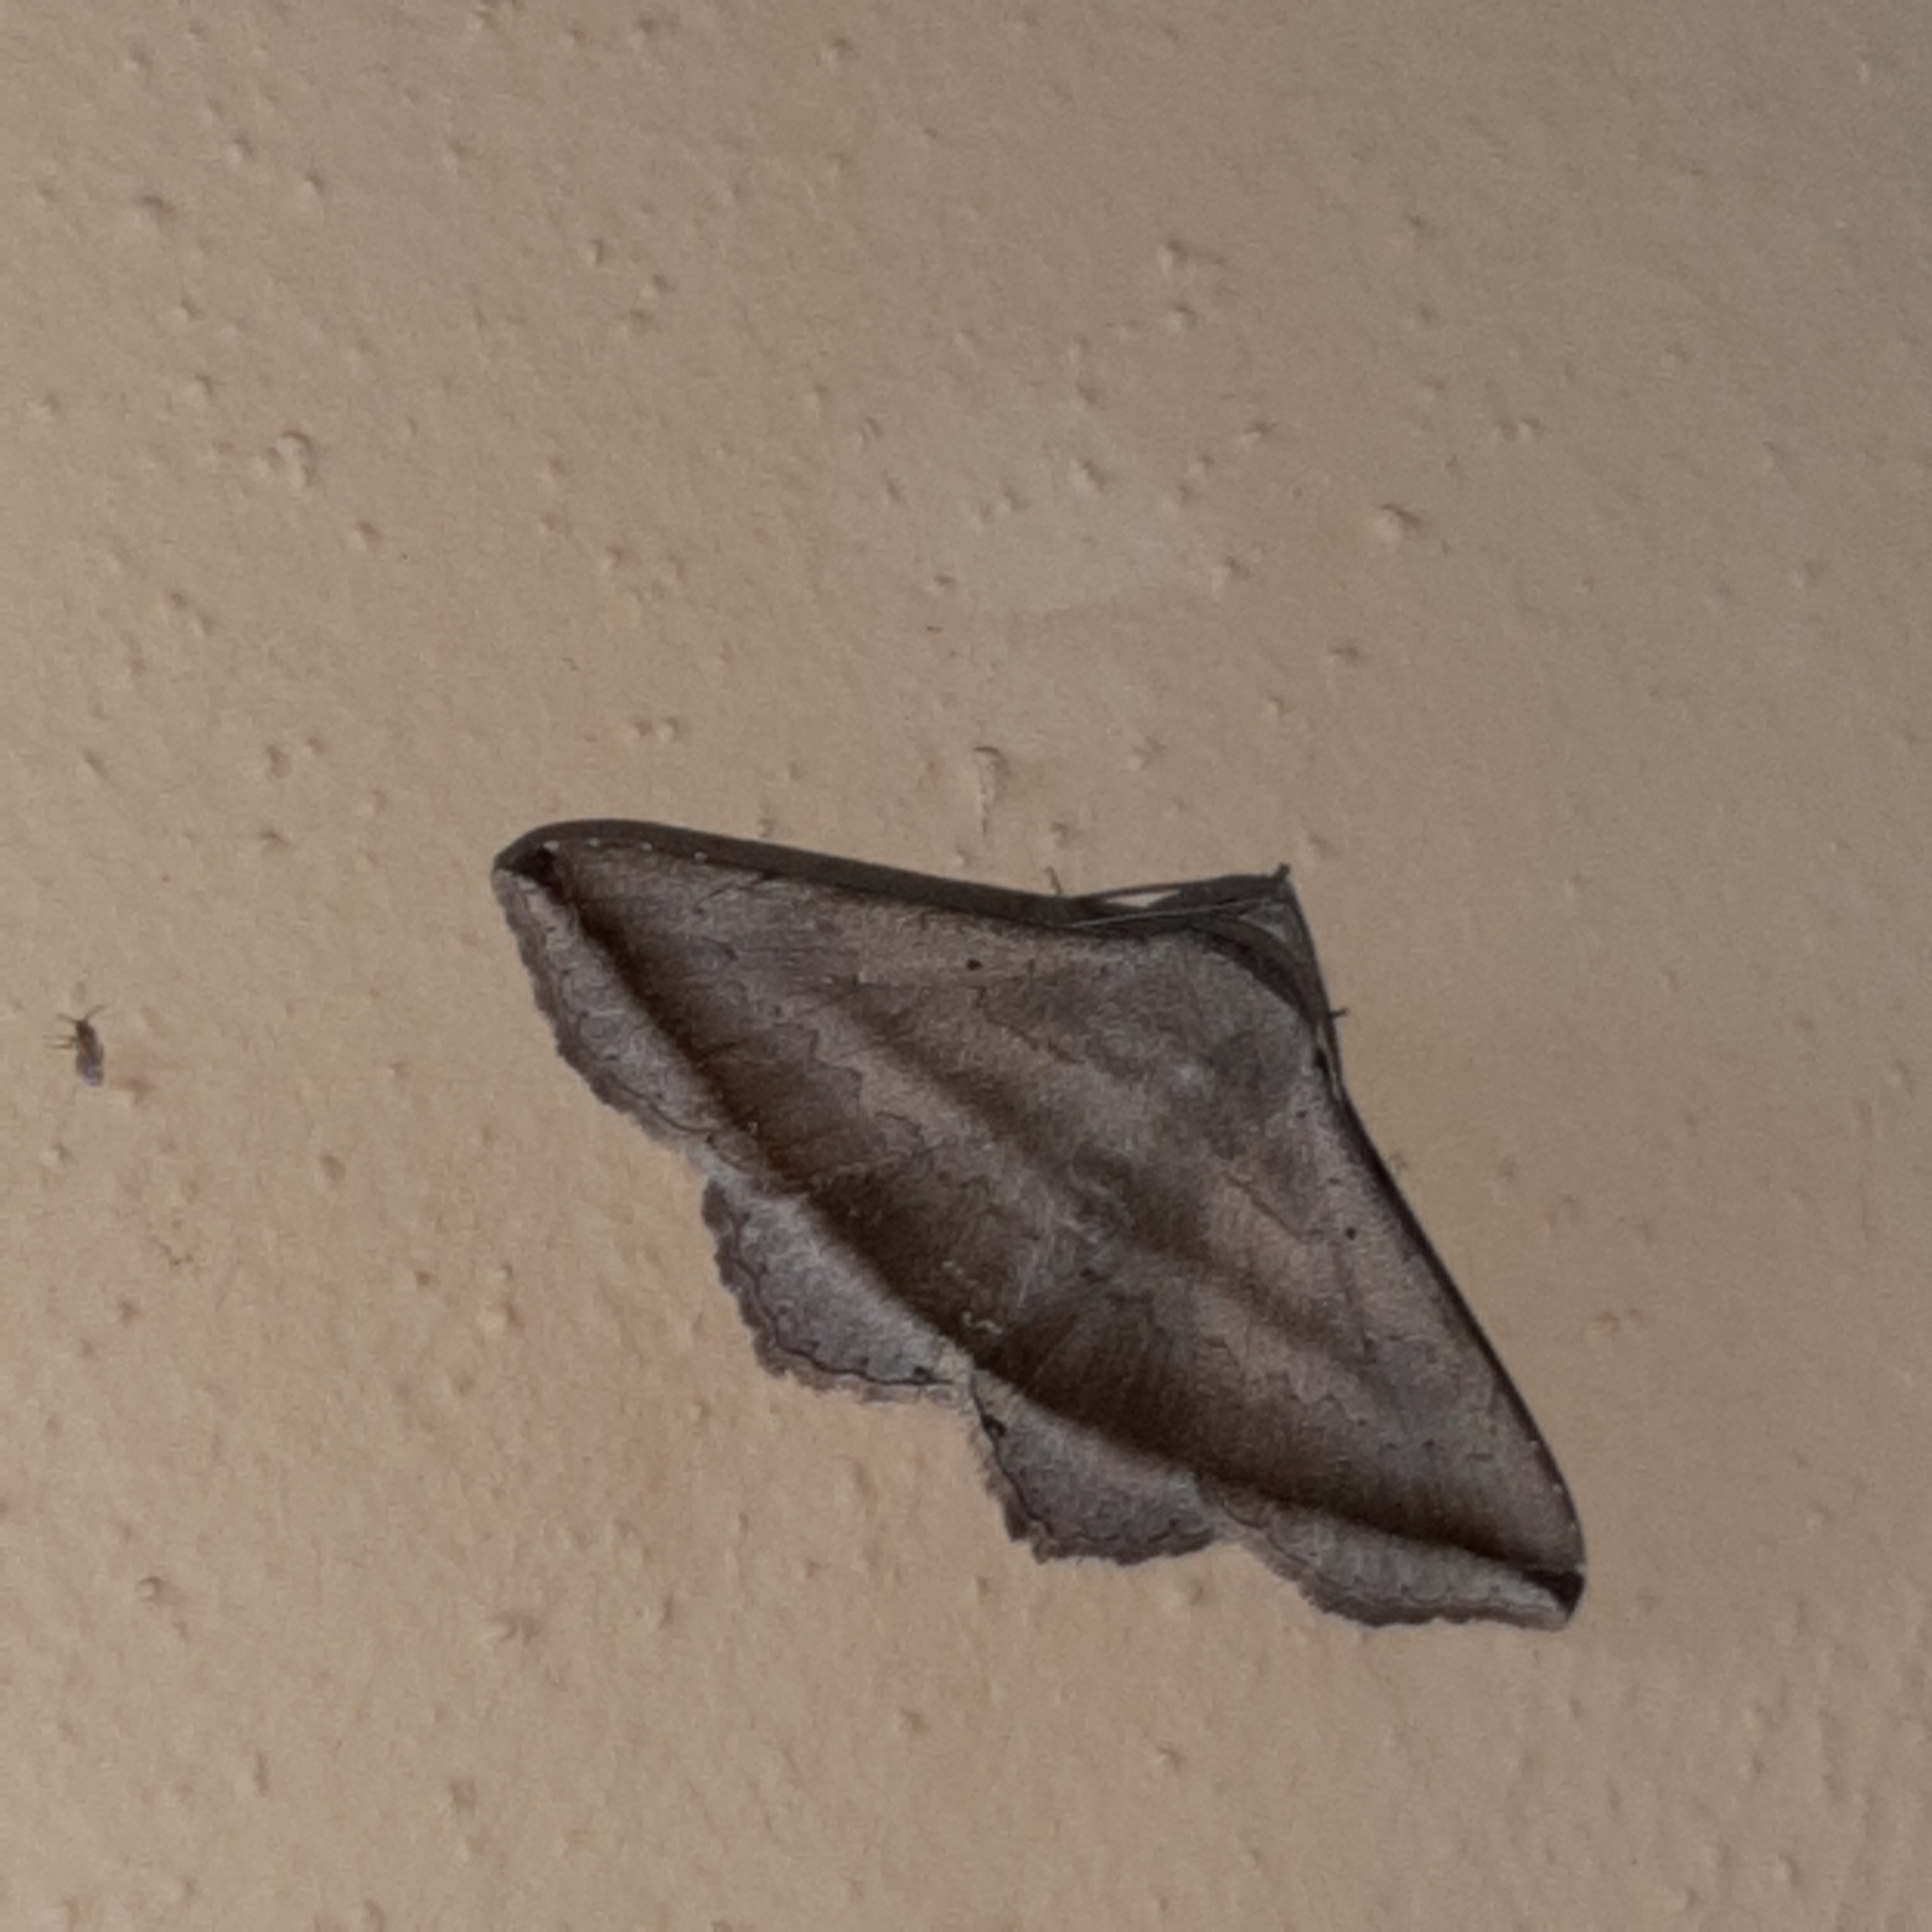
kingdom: Animalia
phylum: Arthropoda
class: Insecta
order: Lepidoptera
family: Erebidae
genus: Lesmone
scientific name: Lesmone formularis
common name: Lesmone moth
